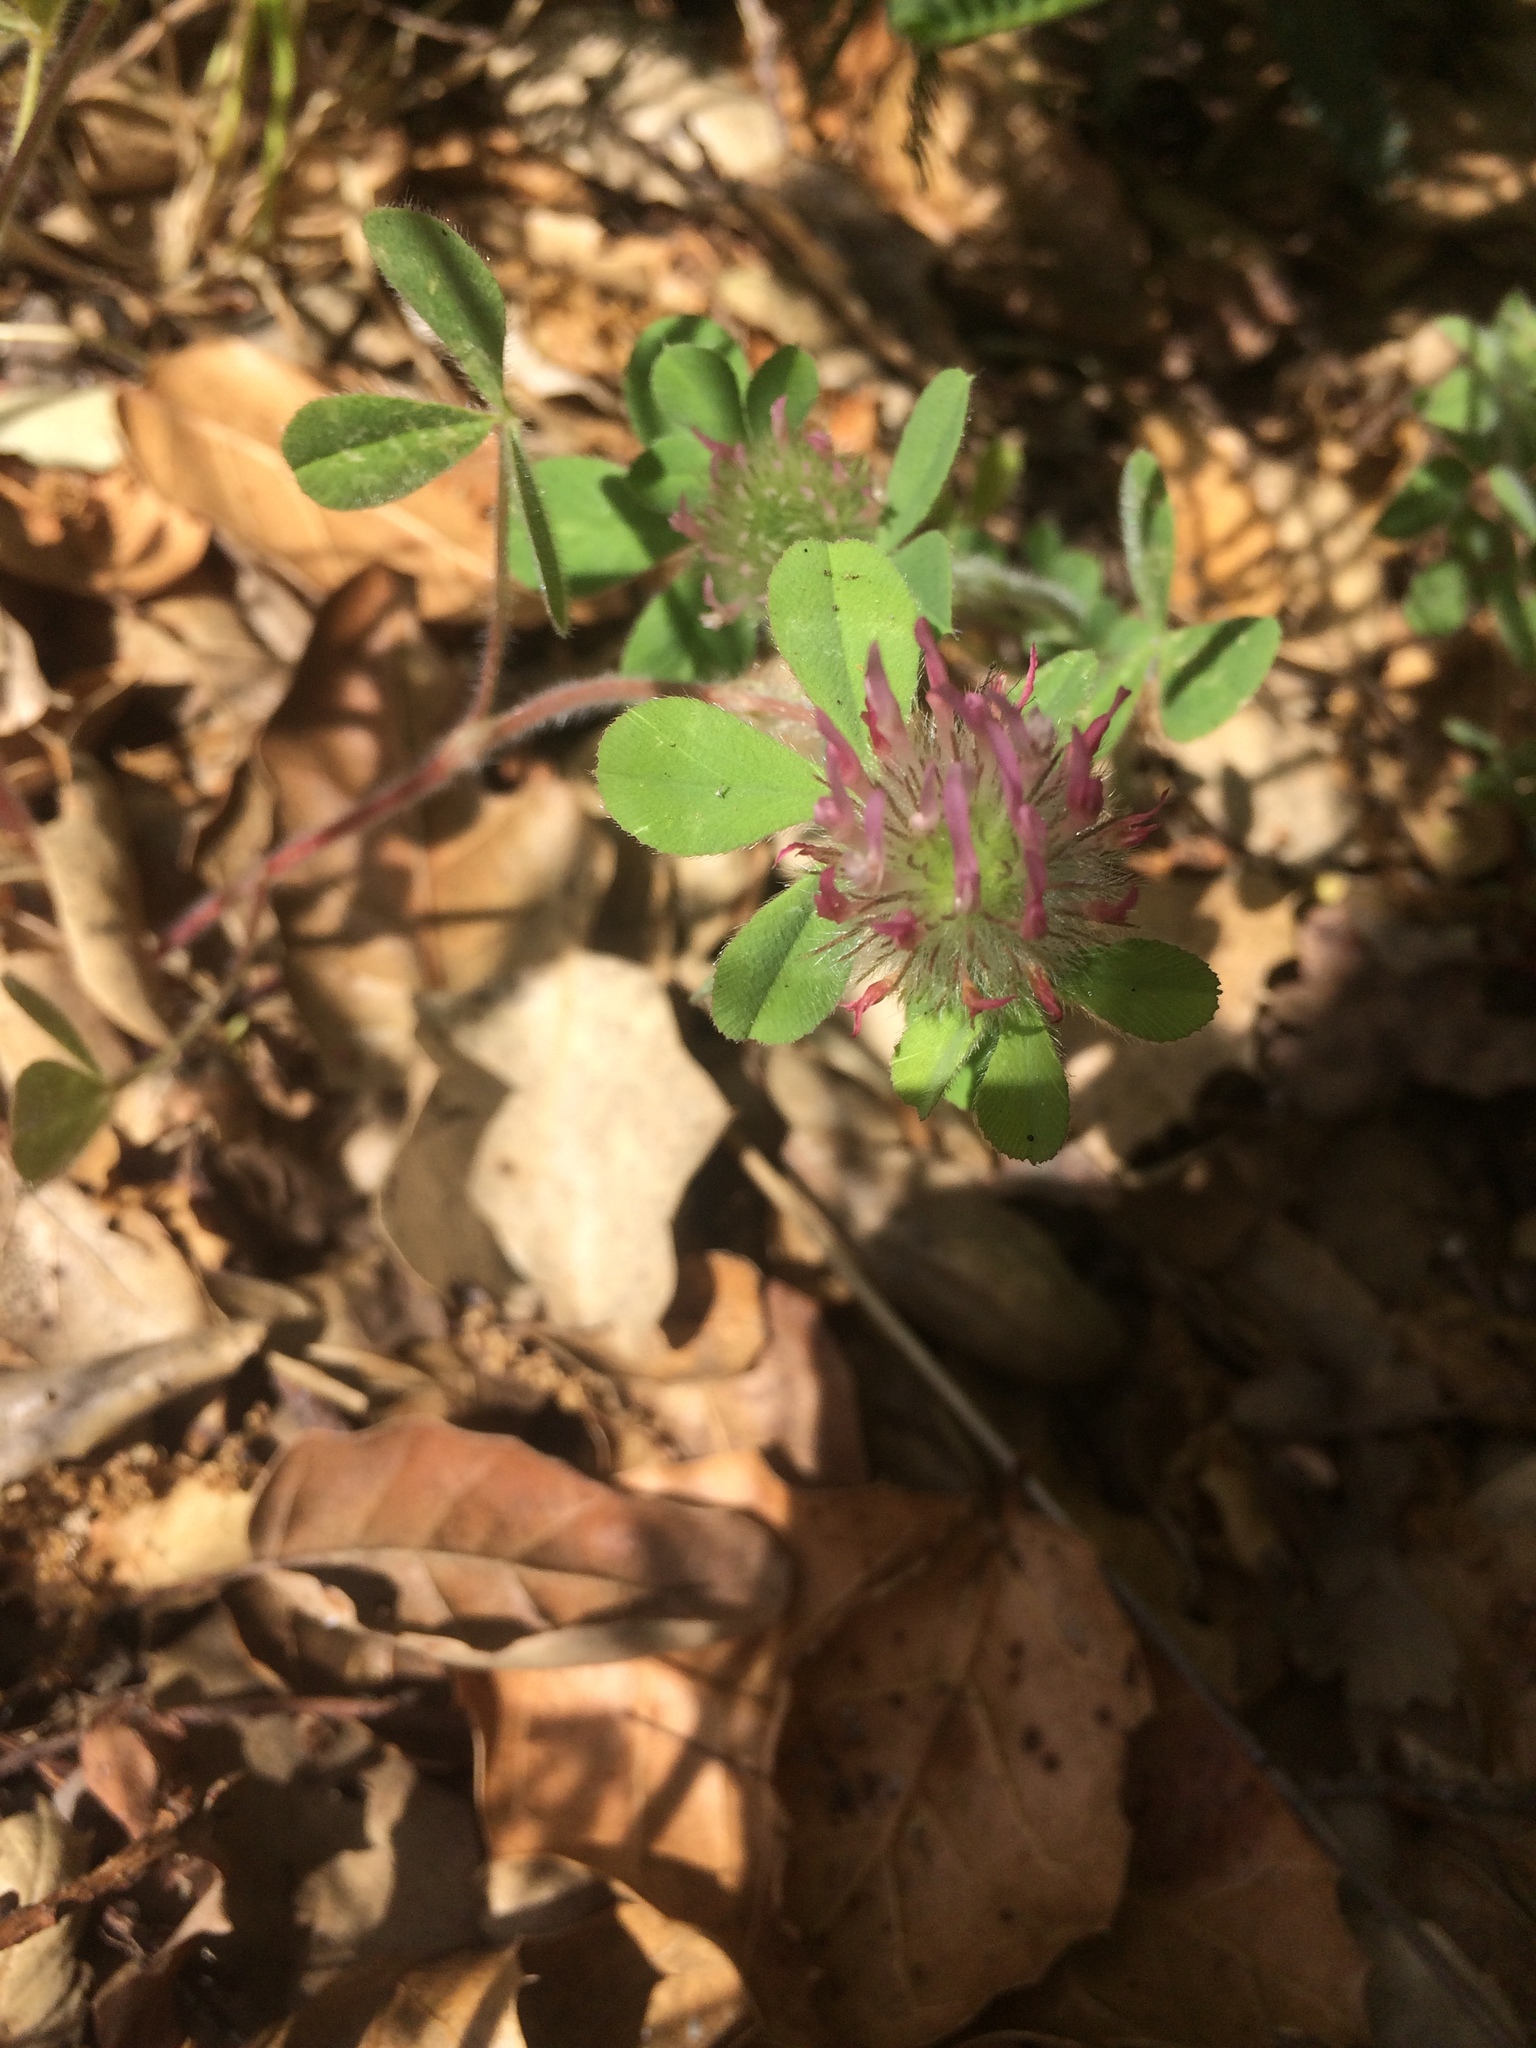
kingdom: Plantae
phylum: Tracheophyta
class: Magnoliopsida
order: Fabales
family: Fabaceae
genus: Trifolium
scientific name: Trifolium hirtum
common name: Rose clover
